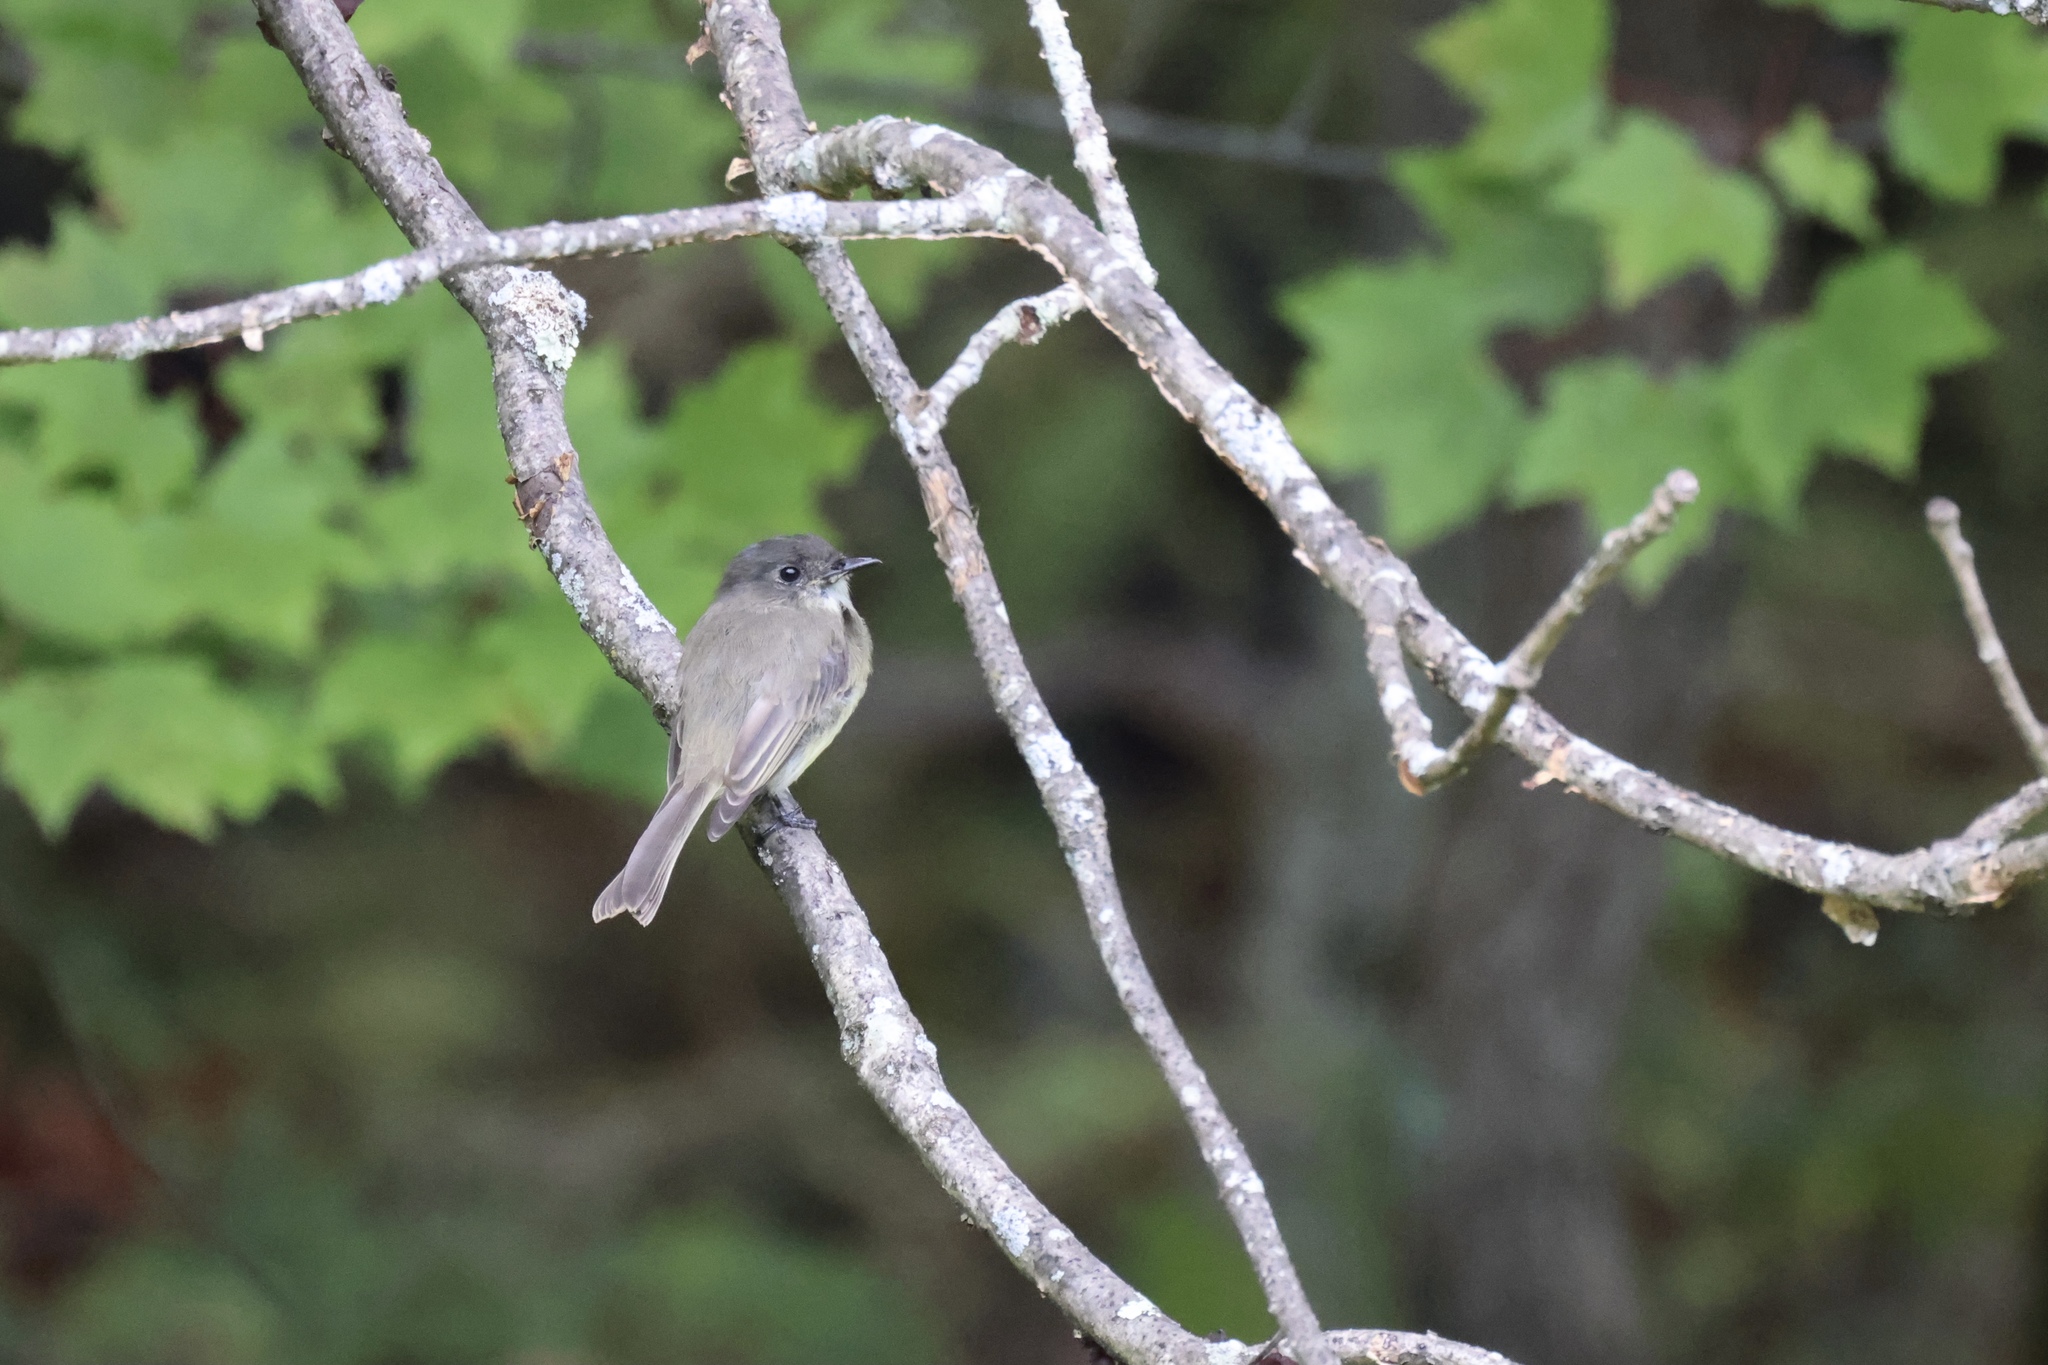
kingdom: Animalia
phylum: Chordata
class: Aves
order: Passeriformes
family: Tyrannidae
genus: Sayornis
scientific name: Sayornis phoebe
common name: Eastern phoebe
